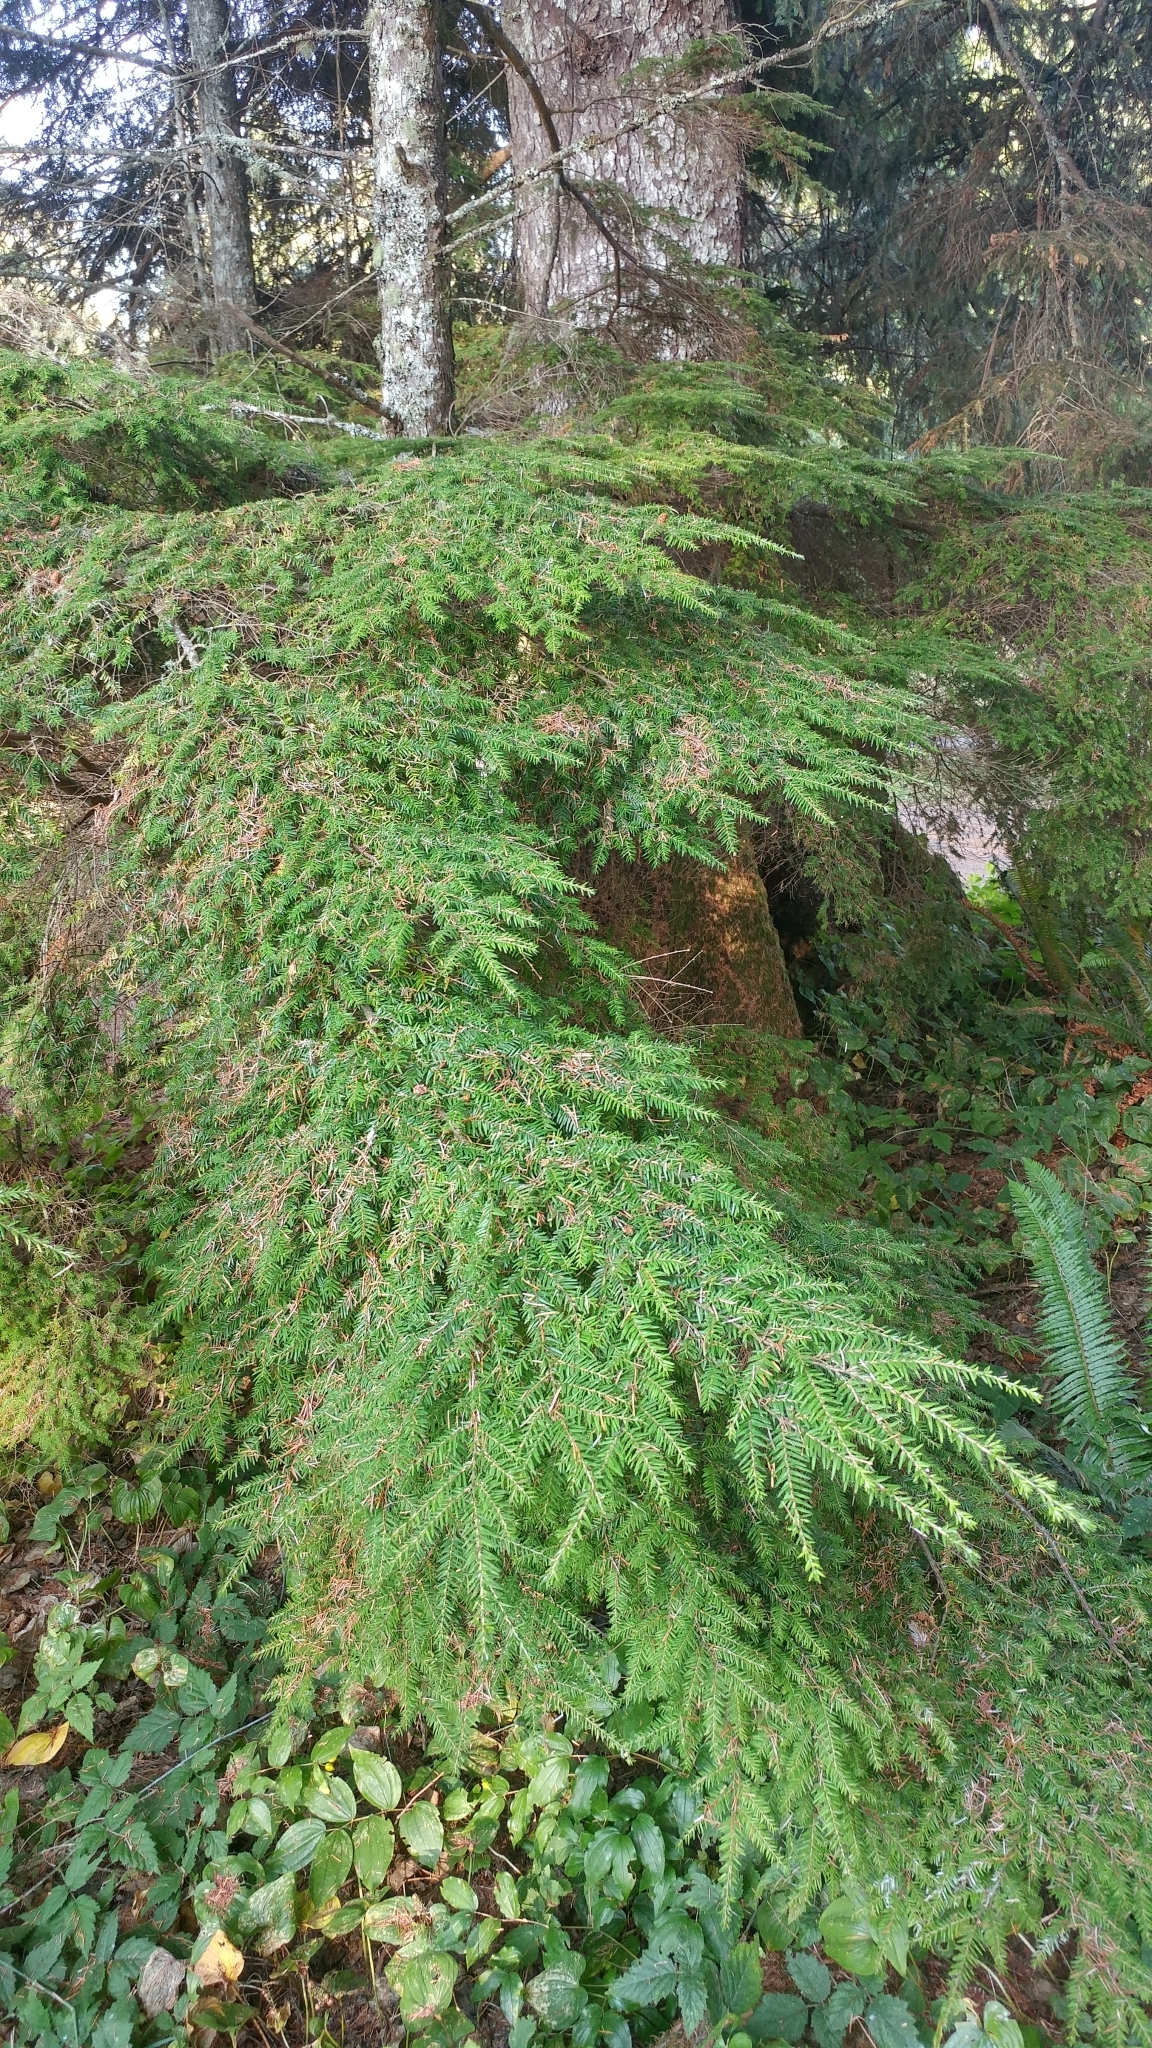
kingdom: Plantae
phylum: Tracheophyta
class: Pinopsida
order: Pinales
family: Pinaceae
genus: Tsuga
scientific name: Tsuga heterophylla
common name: Western hemlock
